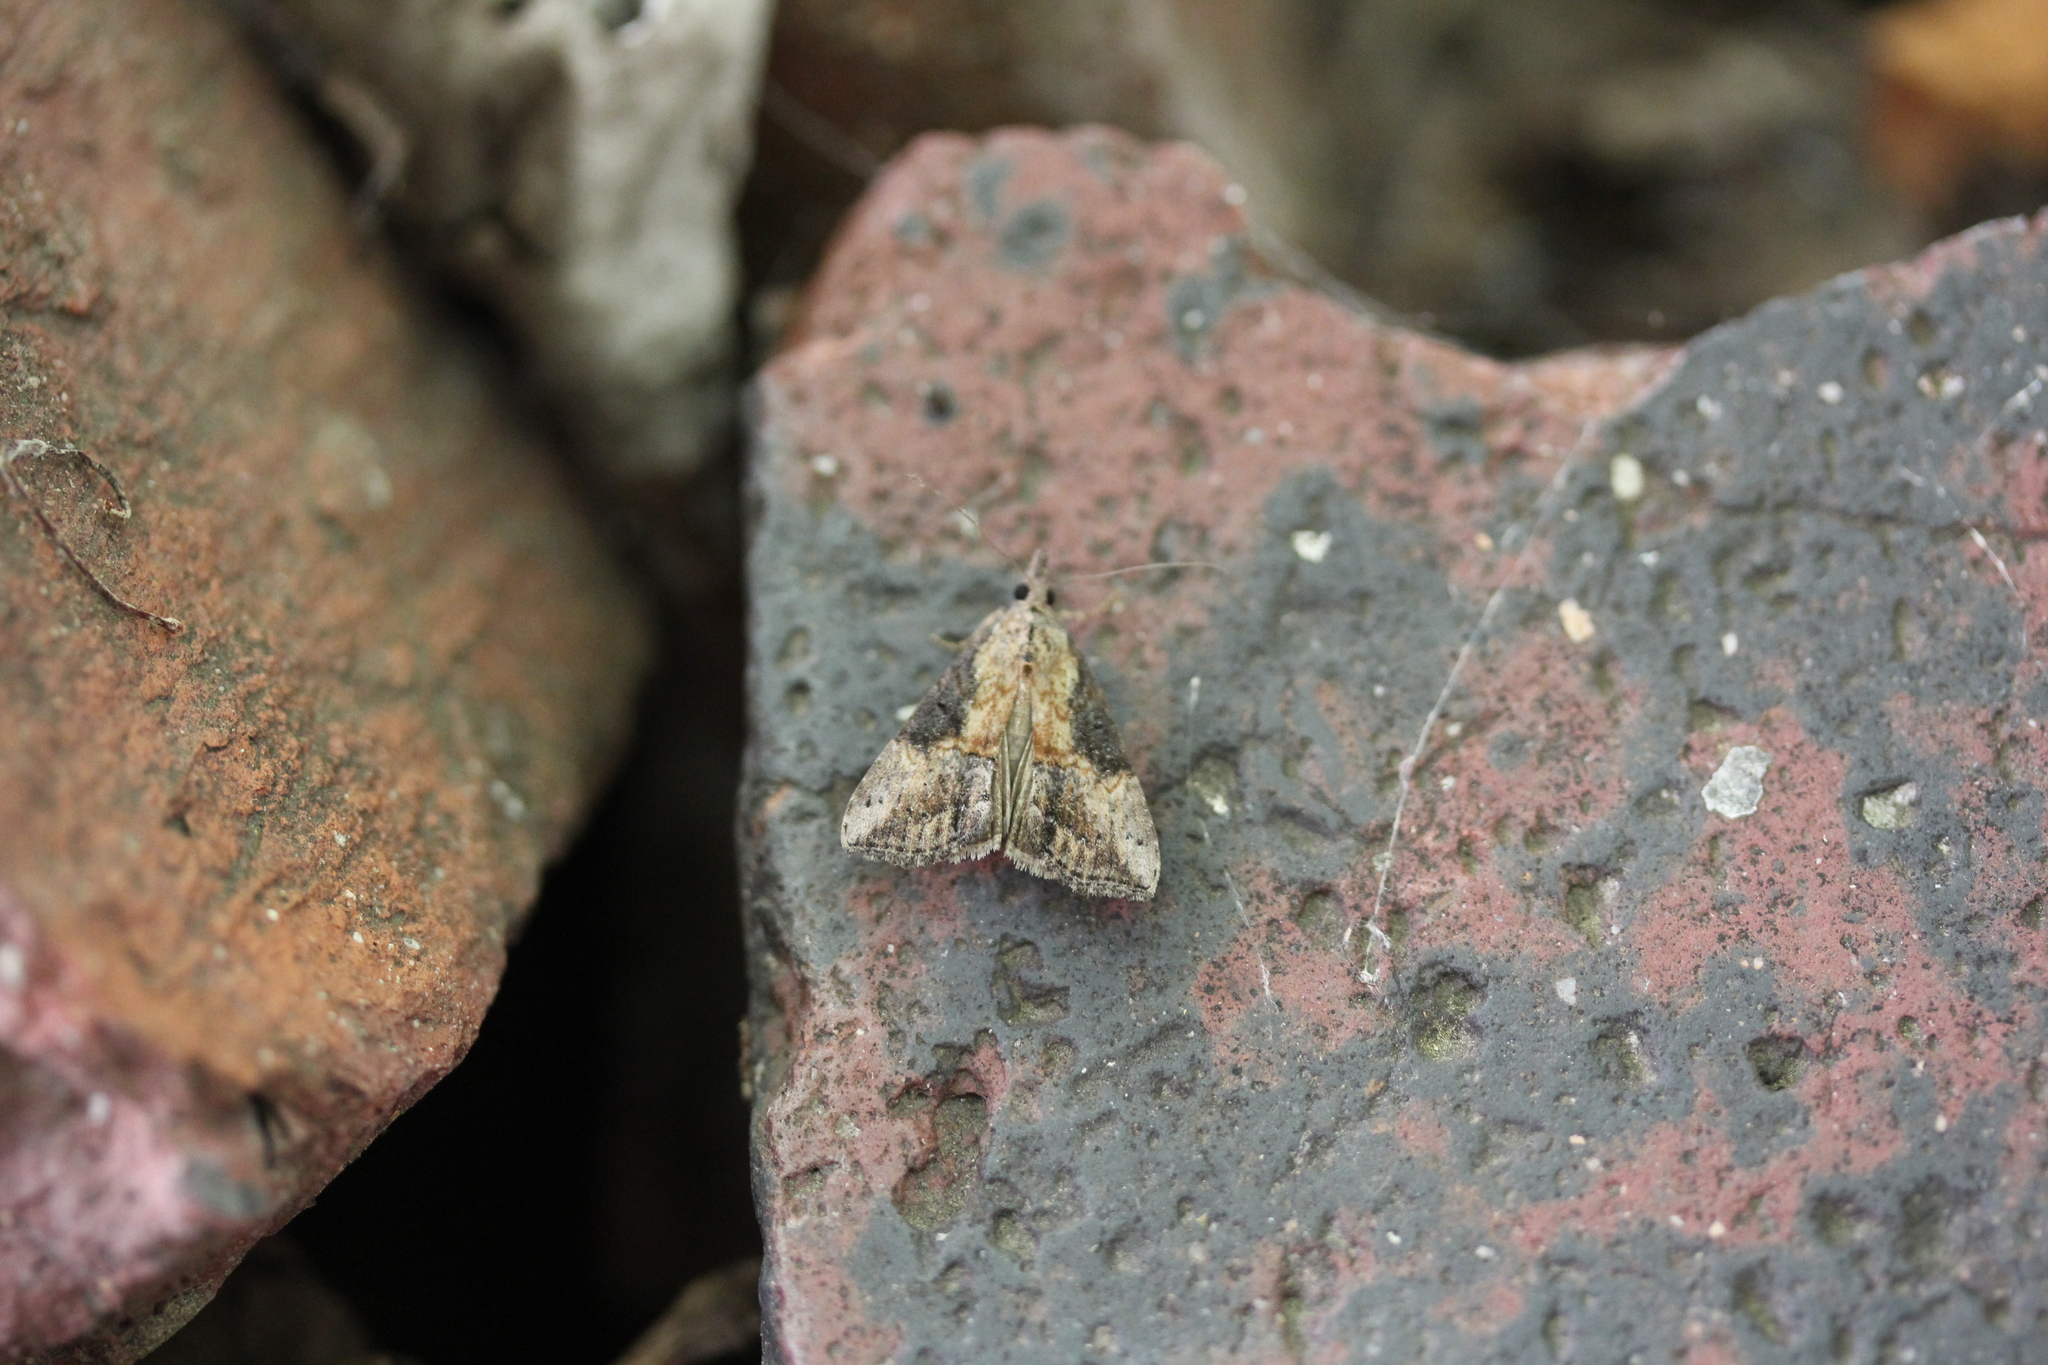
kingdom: Animalia
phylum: Arthropoda
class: Insecta
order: Lepidoptera
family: Erebidae
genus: Hypena
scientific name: Hypena scabra
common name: Green cloverworm
